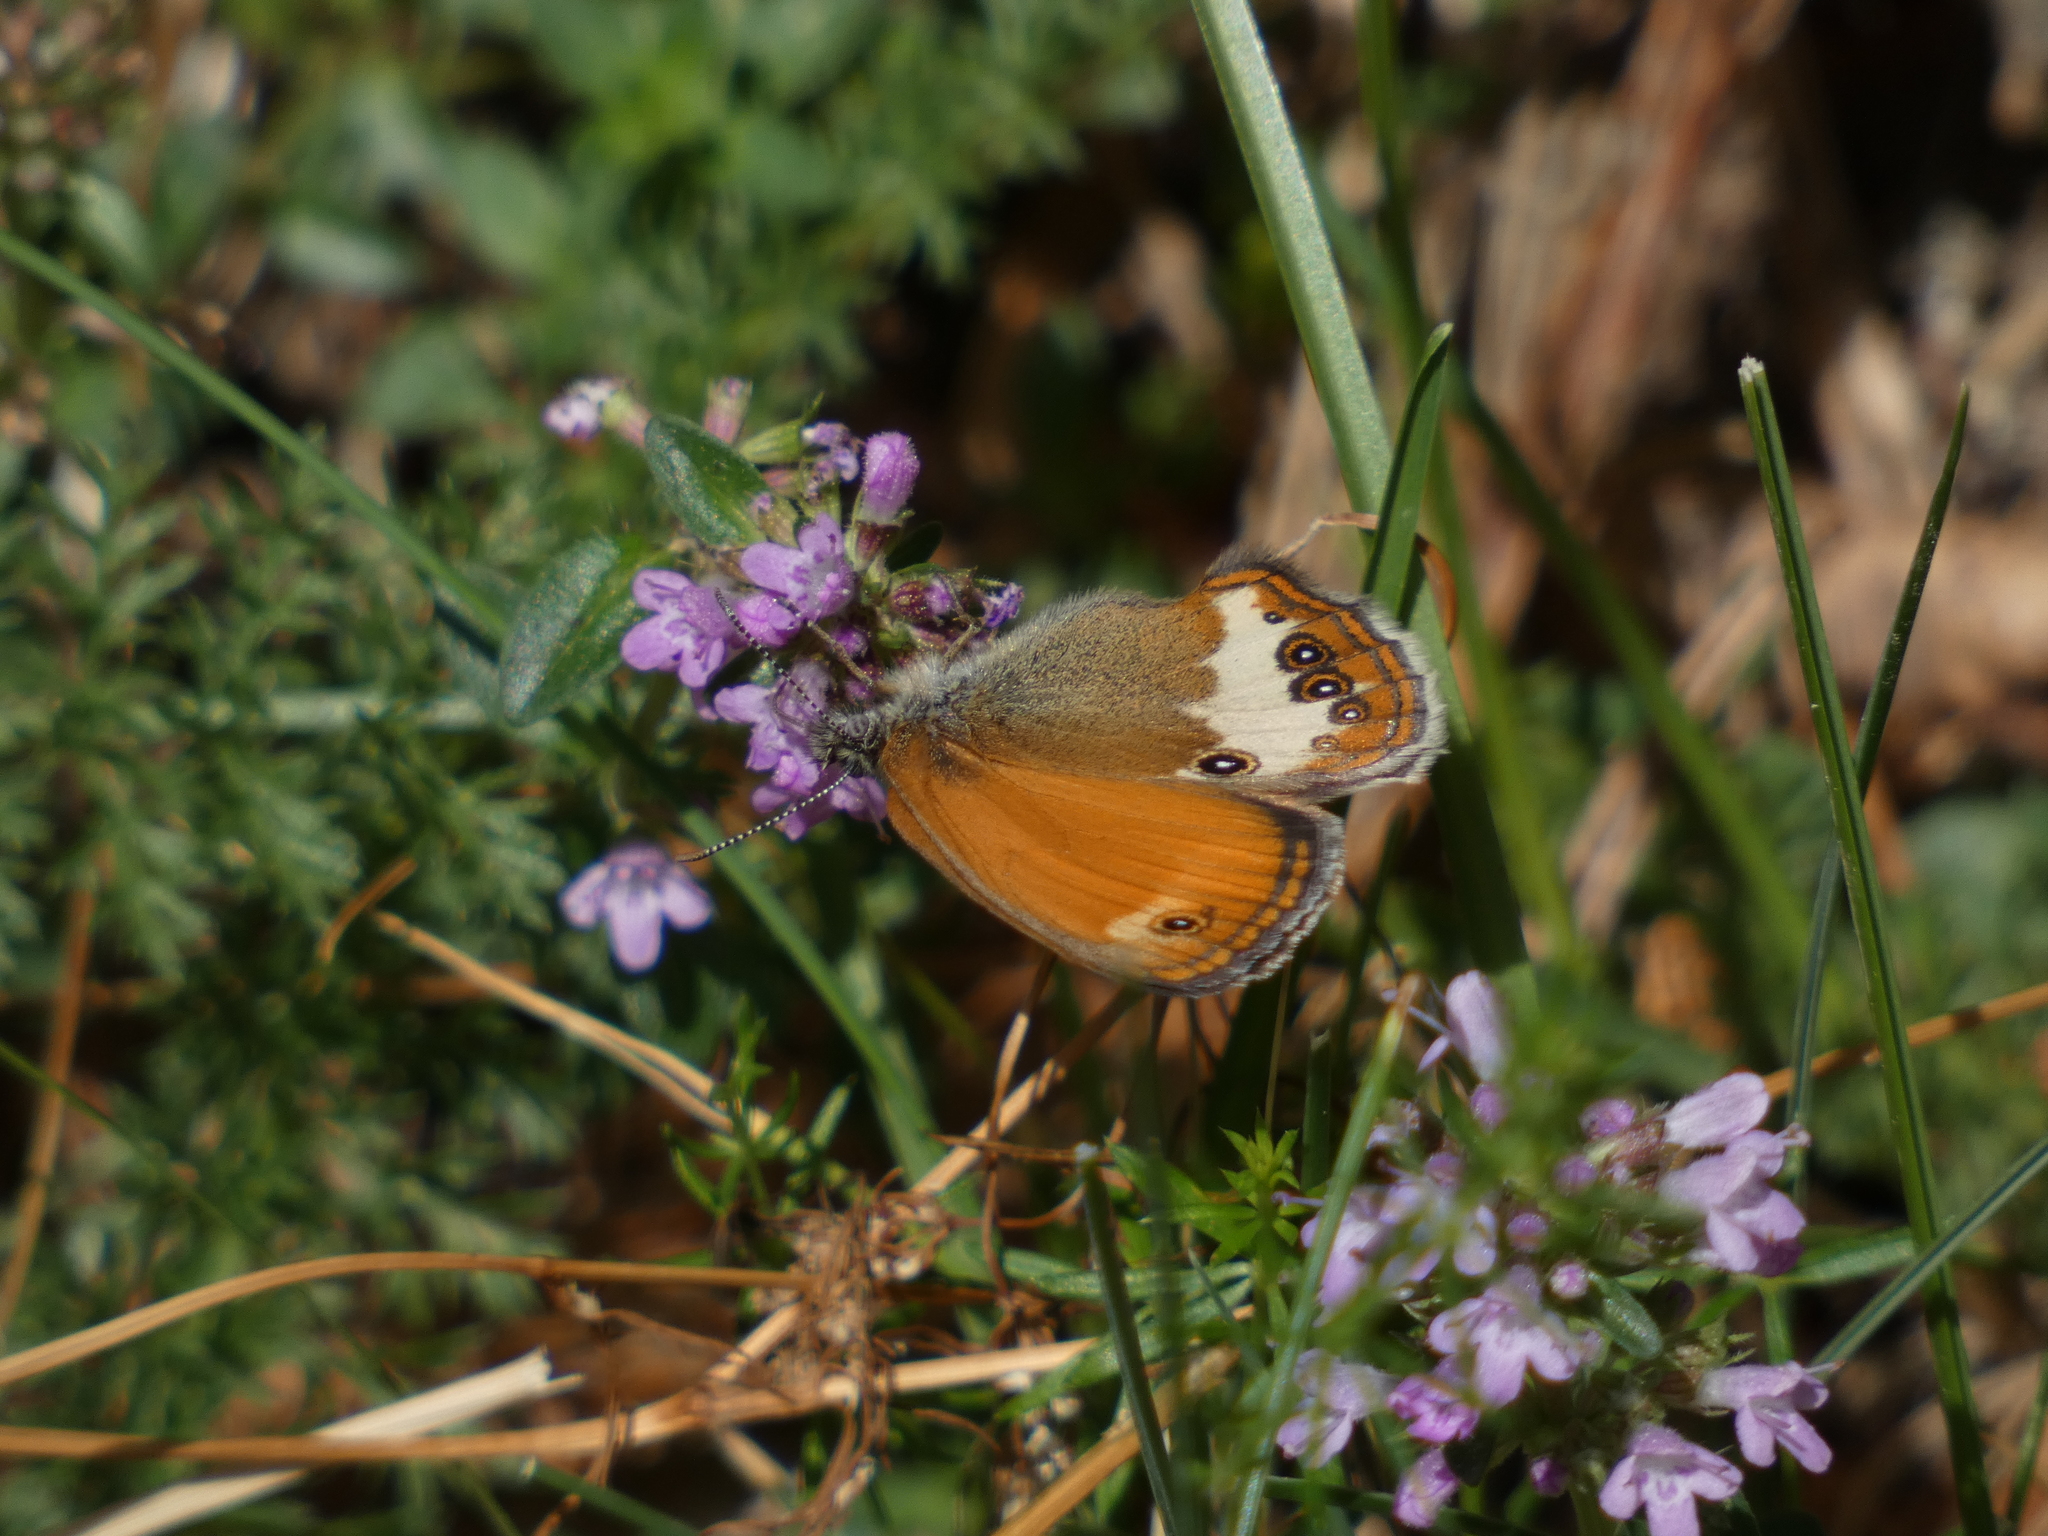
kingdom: Animalia
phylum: Arthropoda
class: Insecta
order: Lepidoptera
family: Nymphalidae
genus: Coenonympha
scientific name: Coenonympha arcania
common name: Pearly heath
